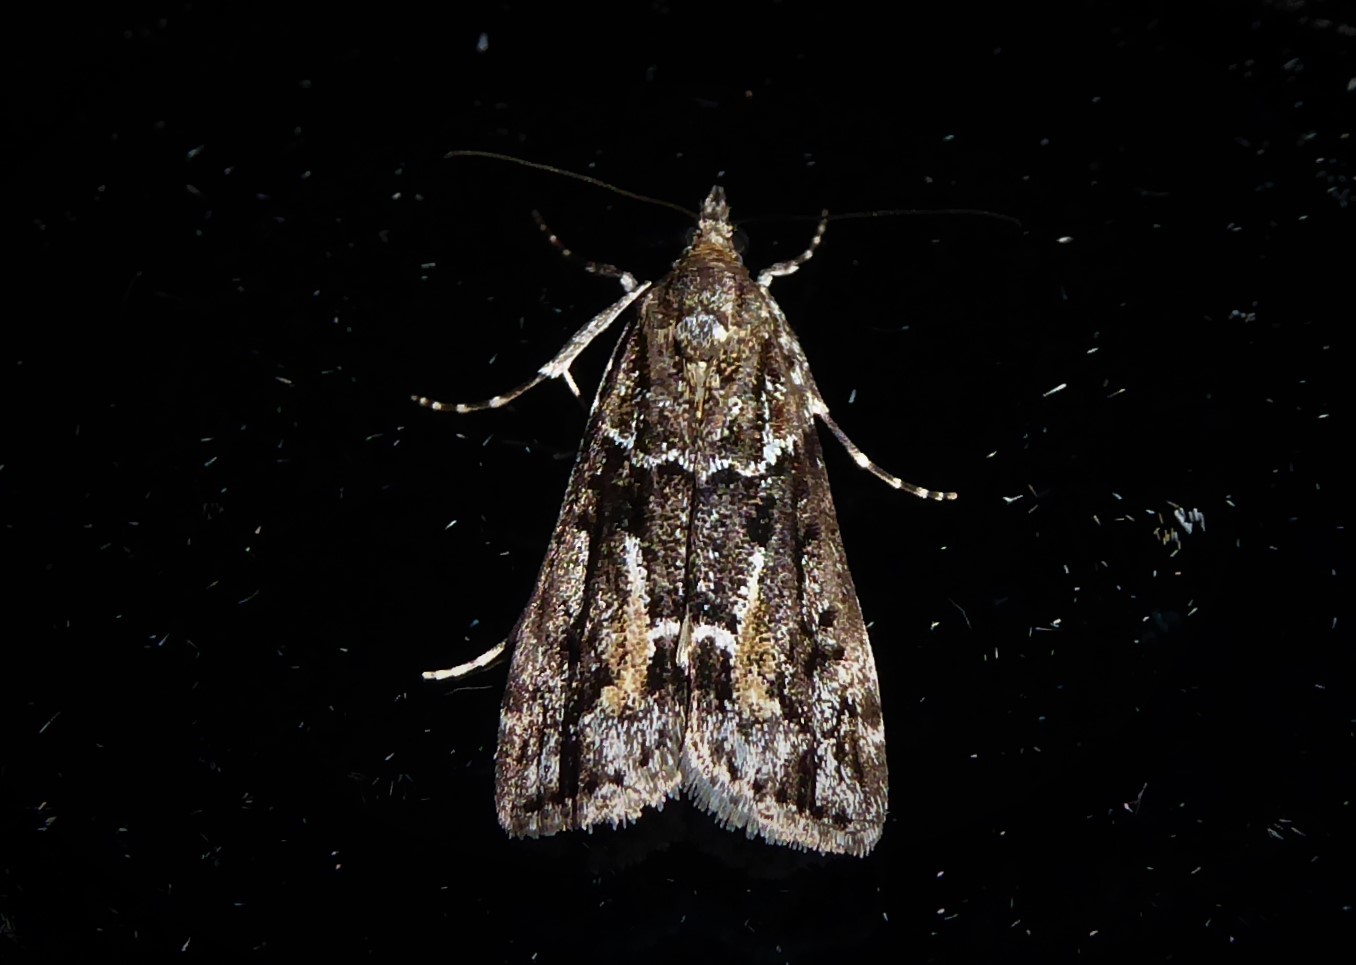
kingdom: Animalia
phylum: Arthropoda
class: Insecta
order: Lepidoptera
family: Crambidae
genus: Eudonia
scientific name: Eudonia submarginalis
